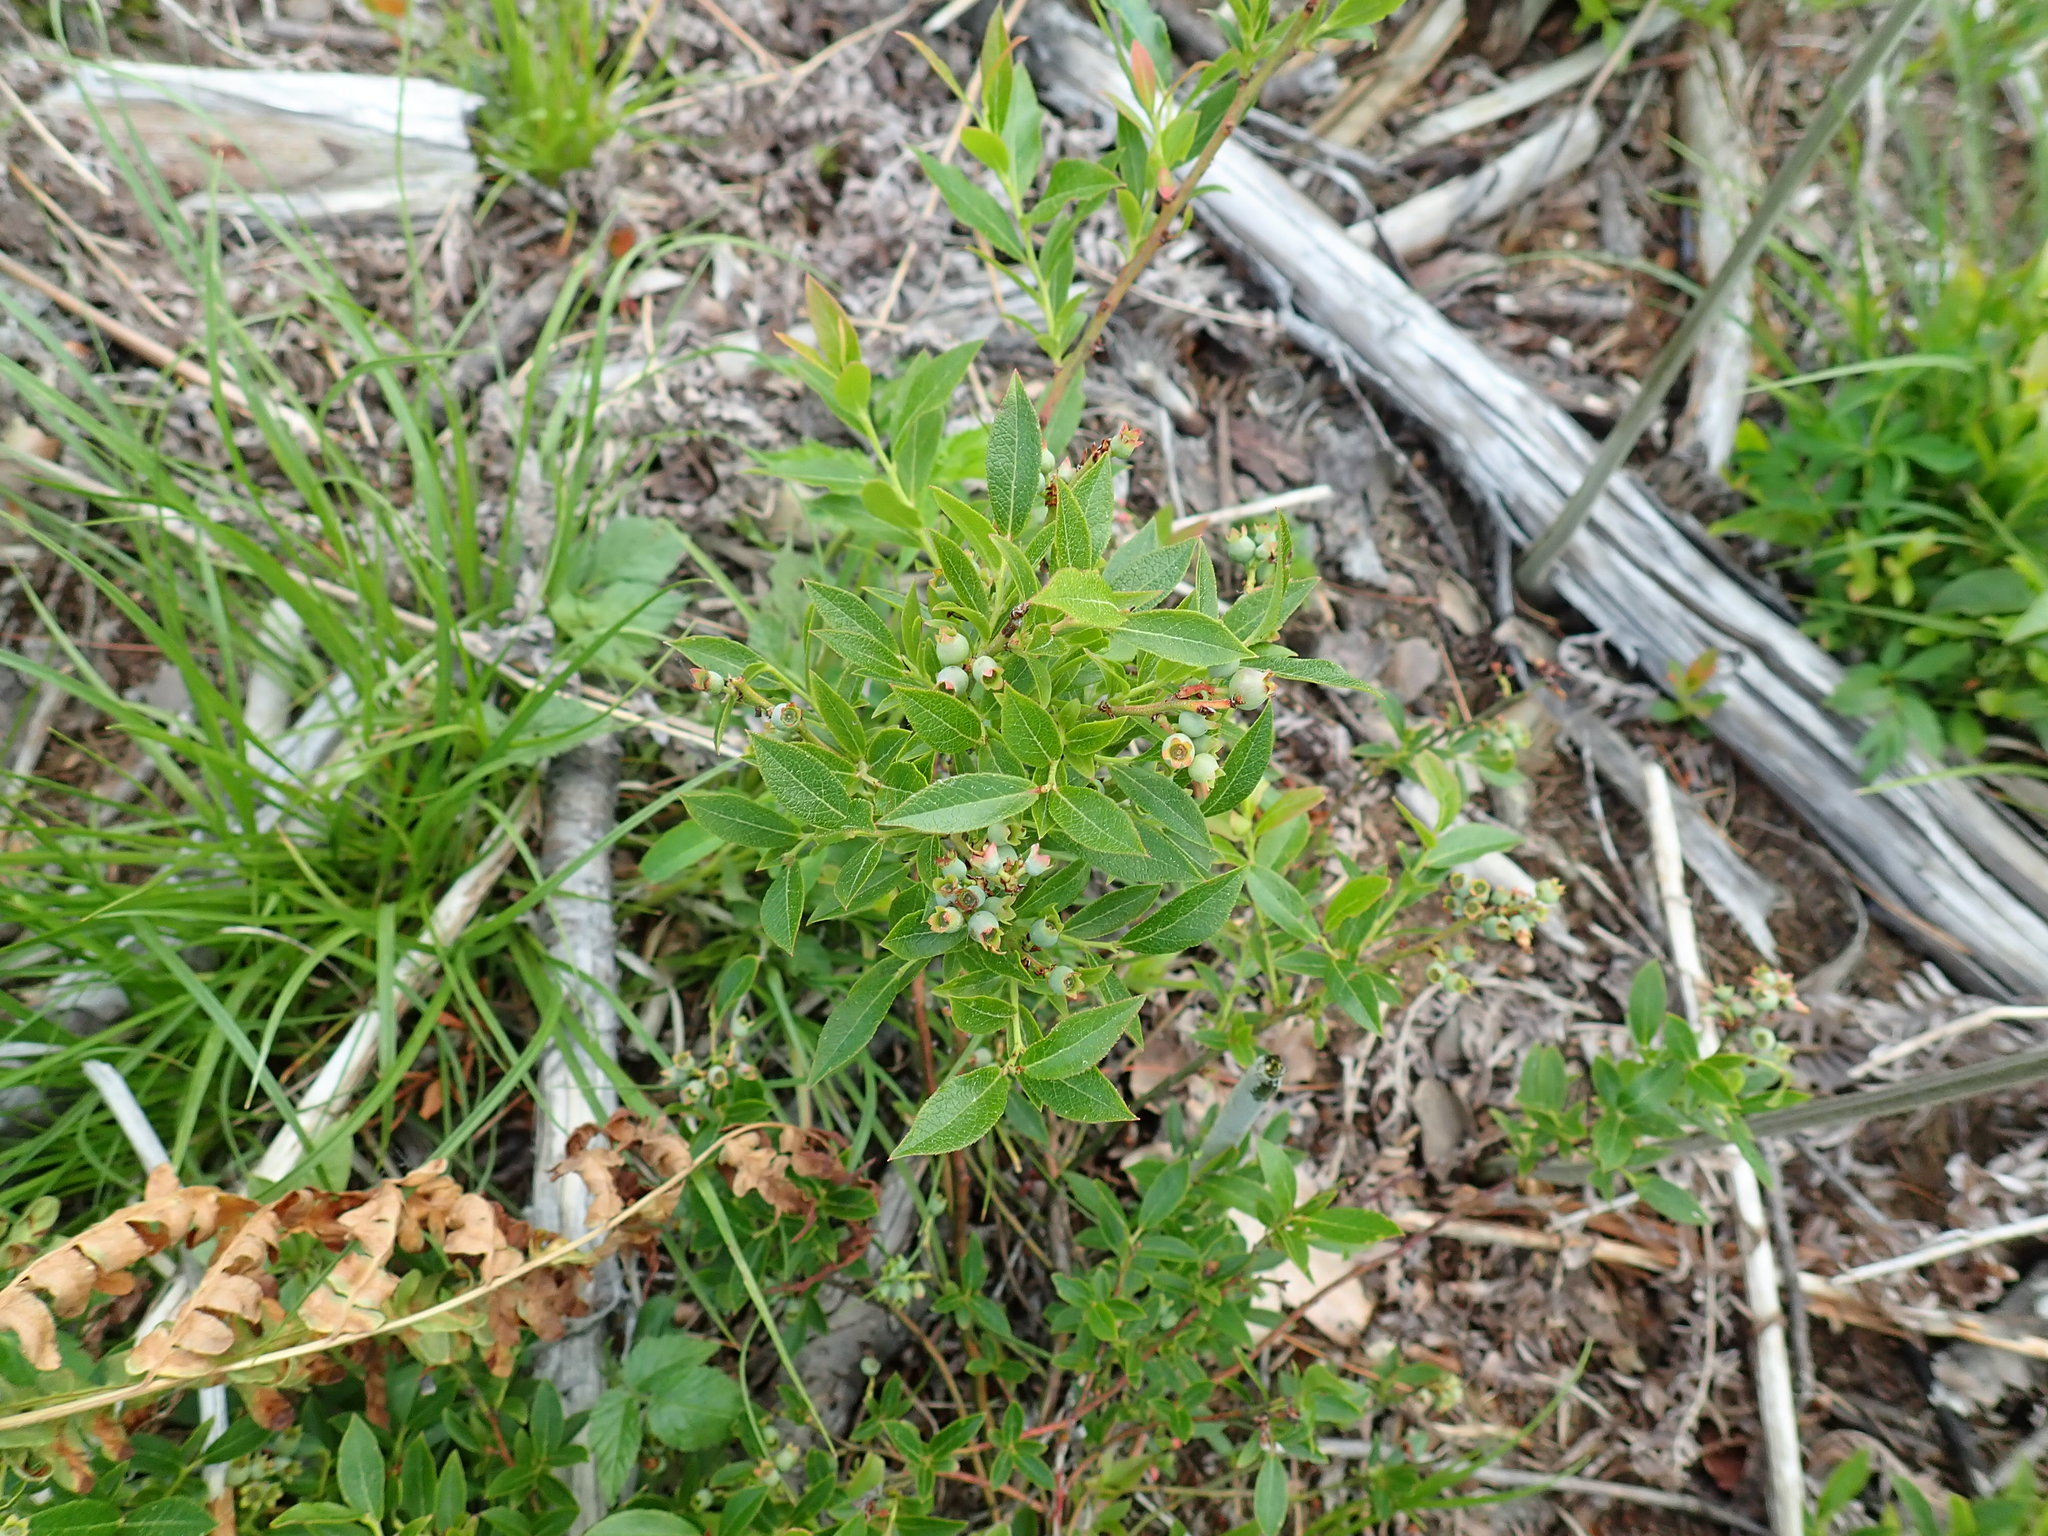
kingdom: Plantae
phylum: Tracheophyta
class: Magnoliopsida
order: Ericales
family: Ericaceae
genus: Vaccinium
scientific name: Vaccinium angustifolium
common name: Early lowbush blueberry
